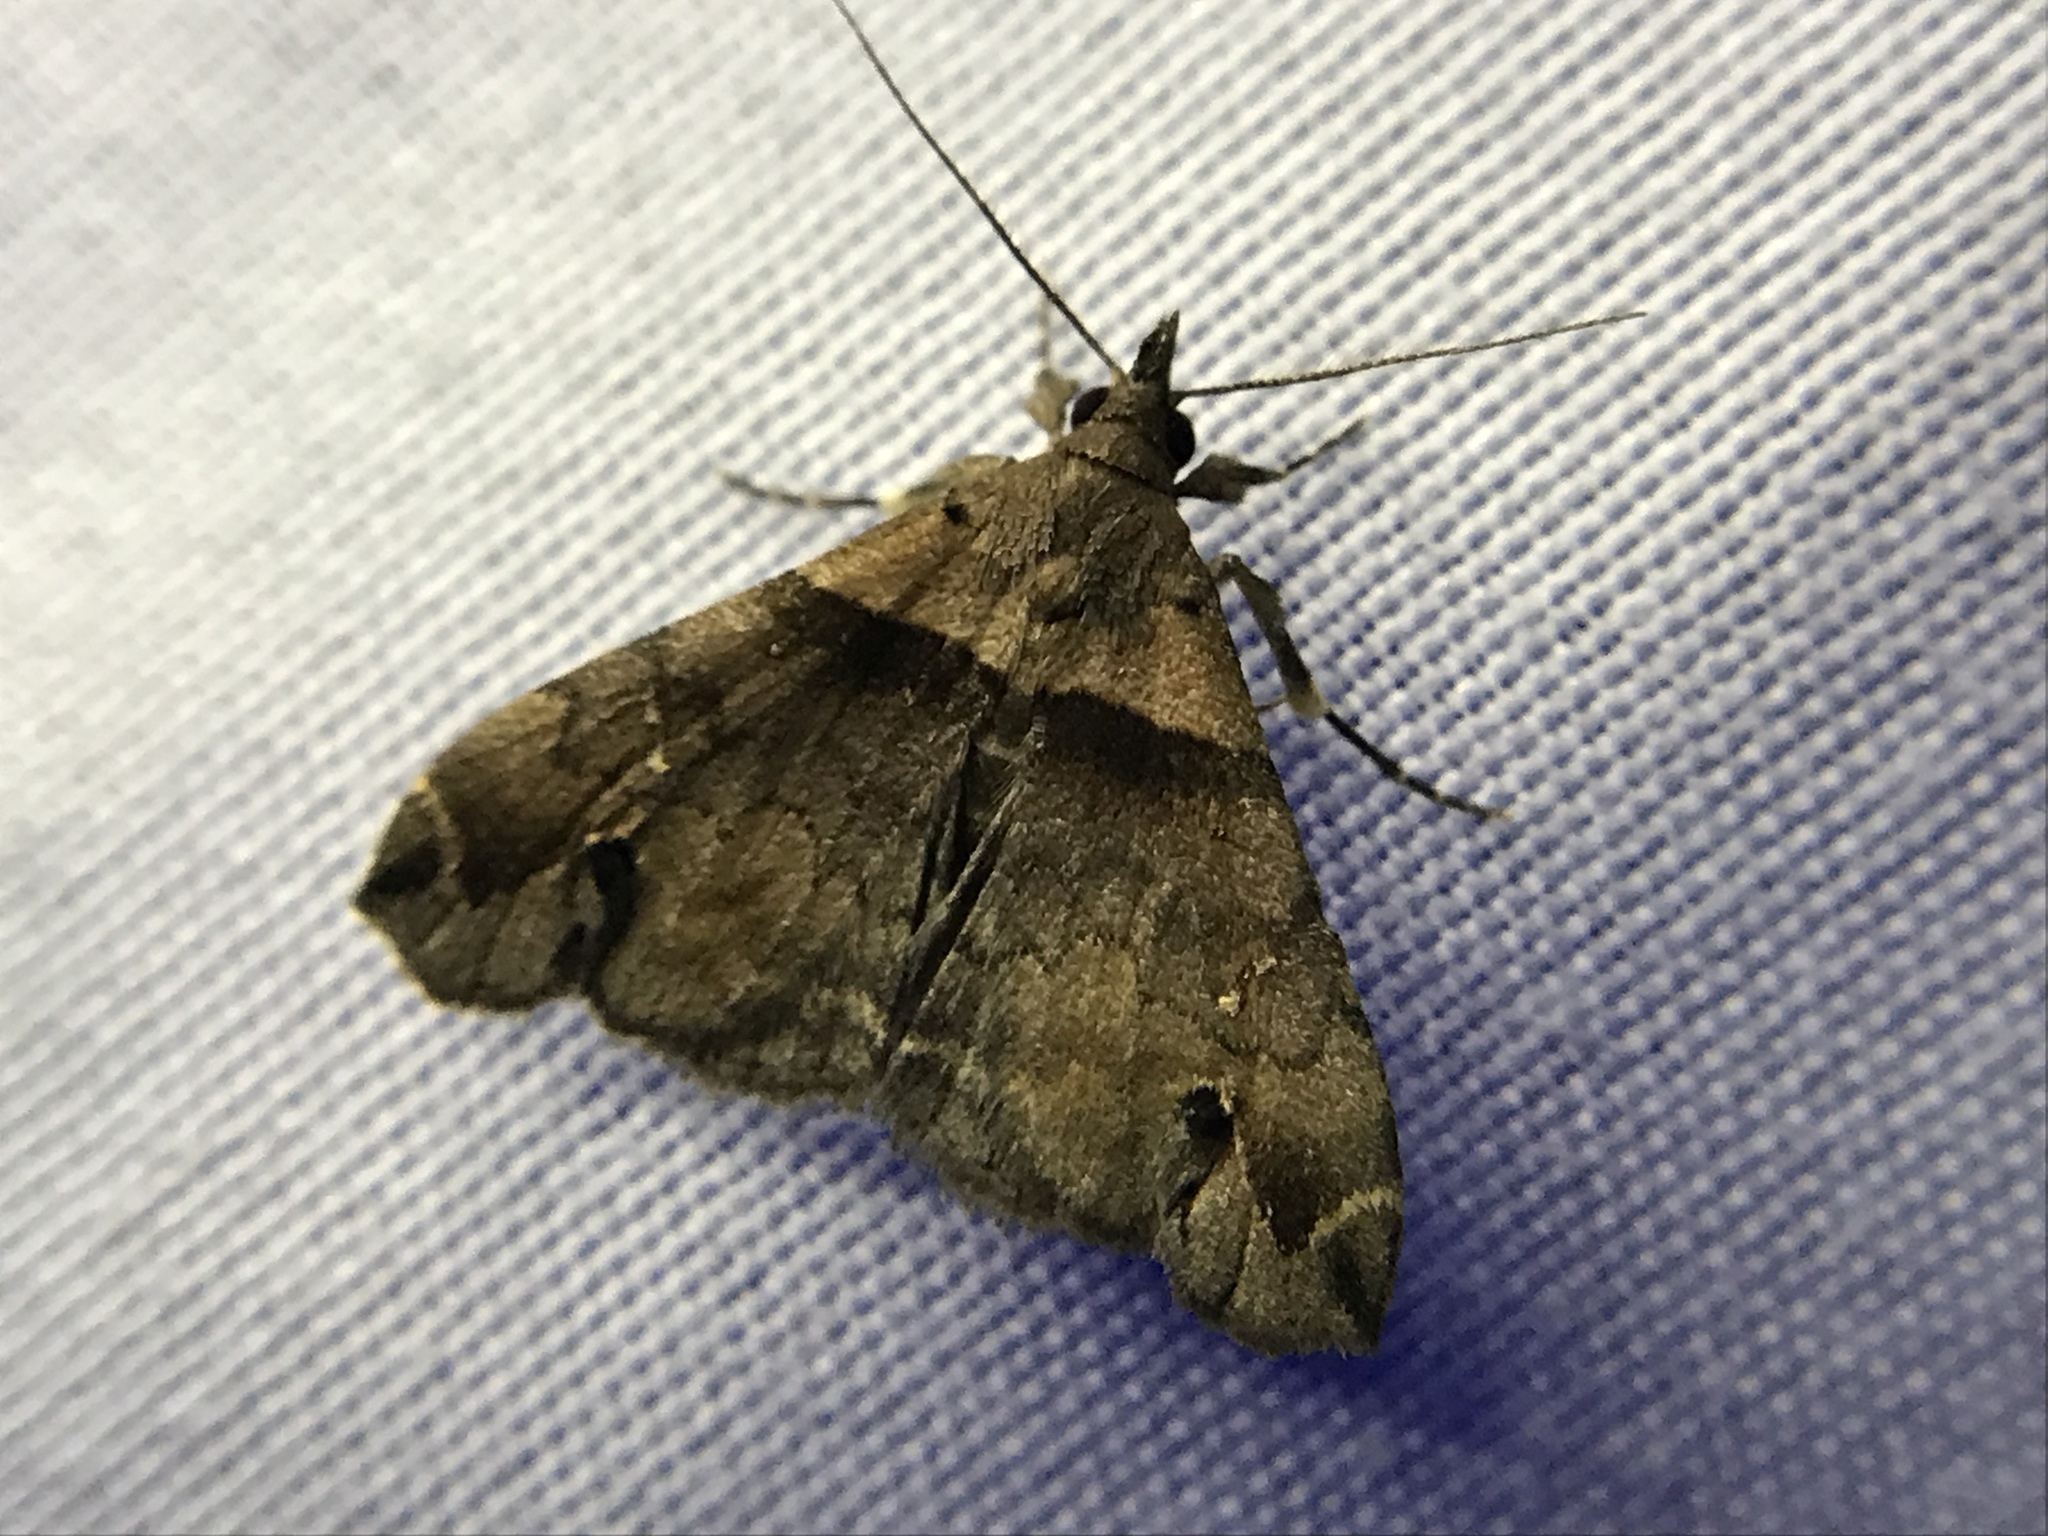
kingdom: Animalia
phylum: Arthropoda
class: Insecta
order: Lepidoptera
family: Erebidae
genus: Lascoria
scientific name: Lascoria ambigualis
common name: Ambiguous moth
